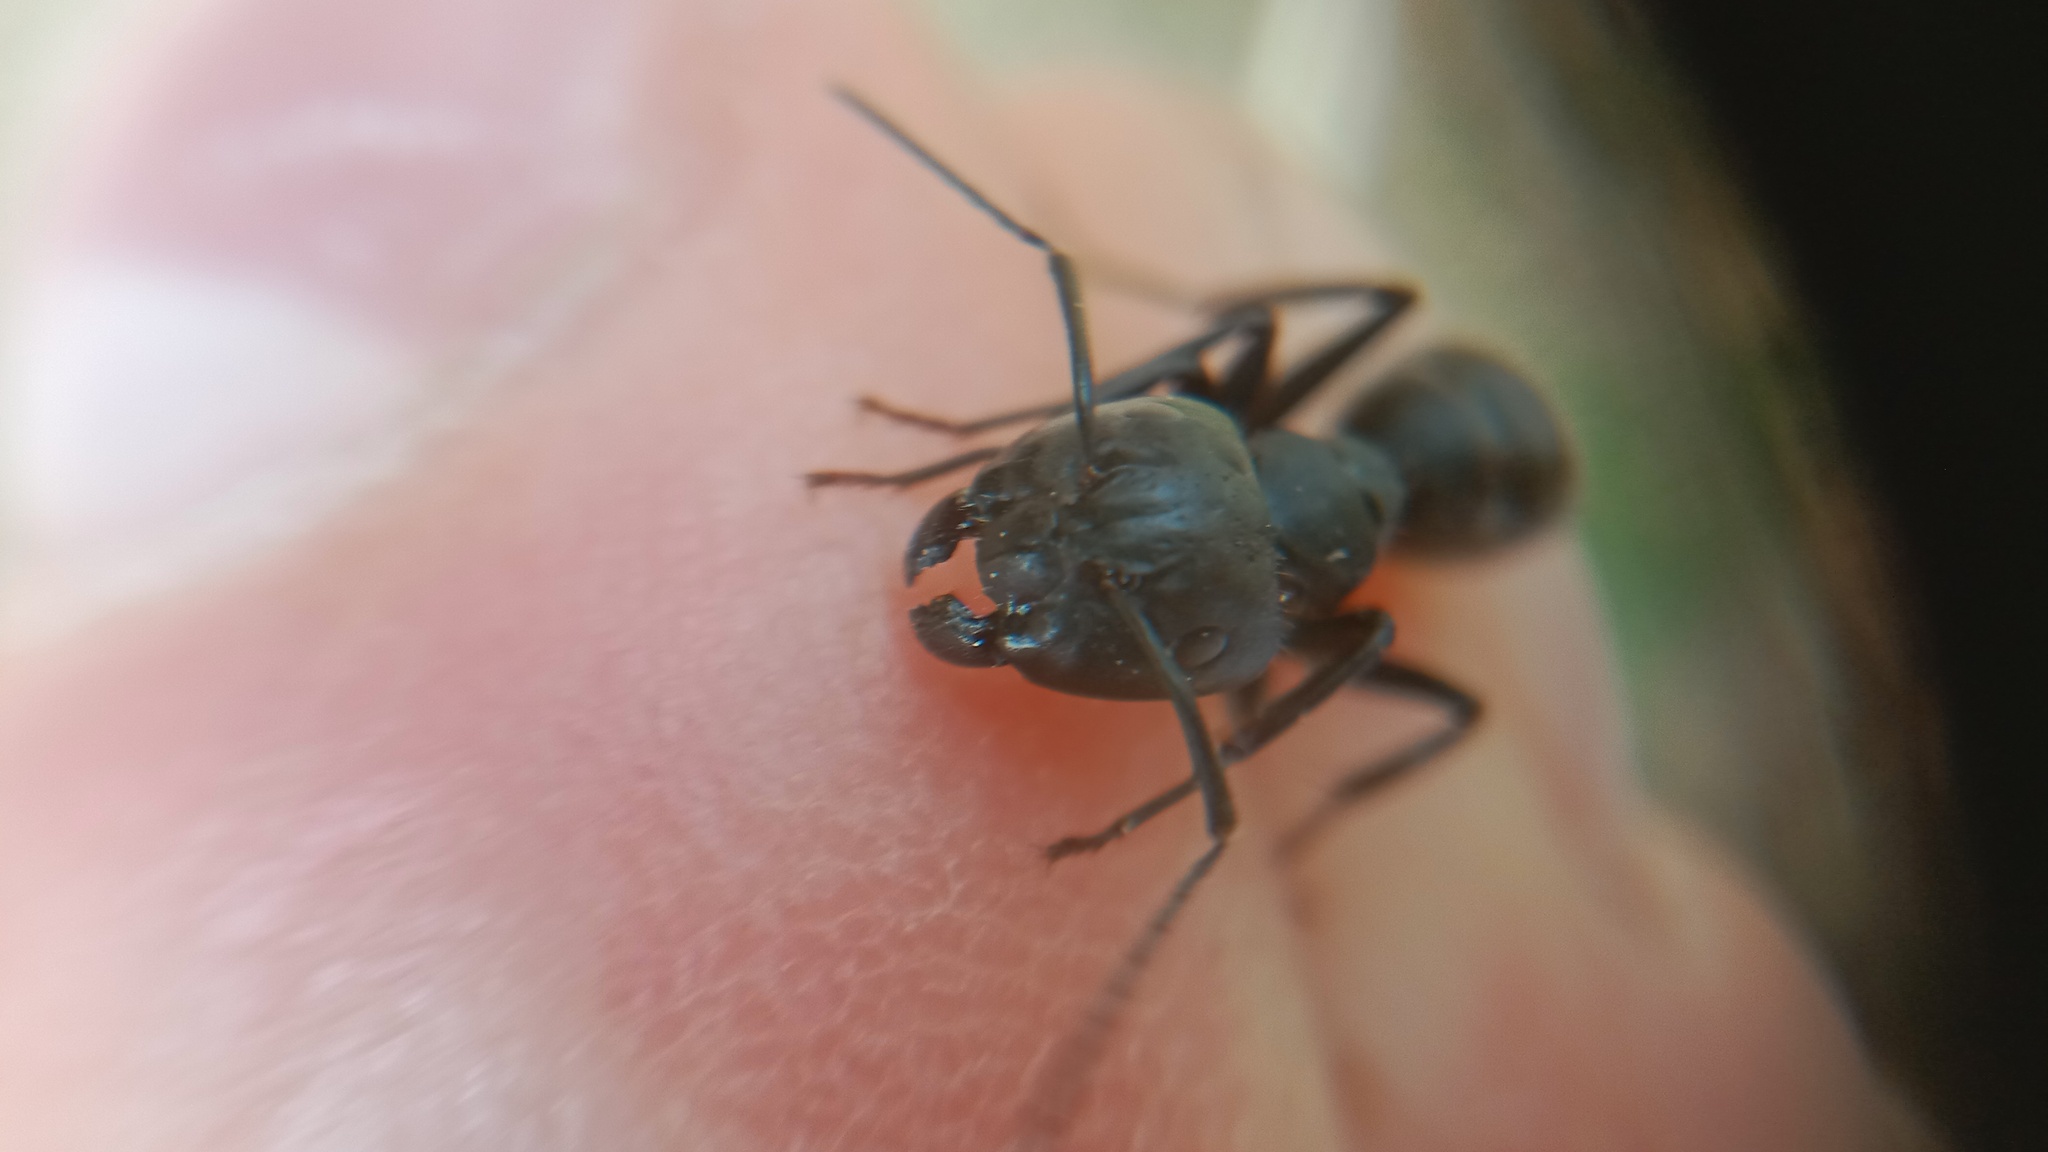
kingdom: Animalia
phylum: Arthropoda
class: Insecta
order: Hymenoptera
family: Formicidae
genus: Camponotus
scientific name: Camponotus vagus
